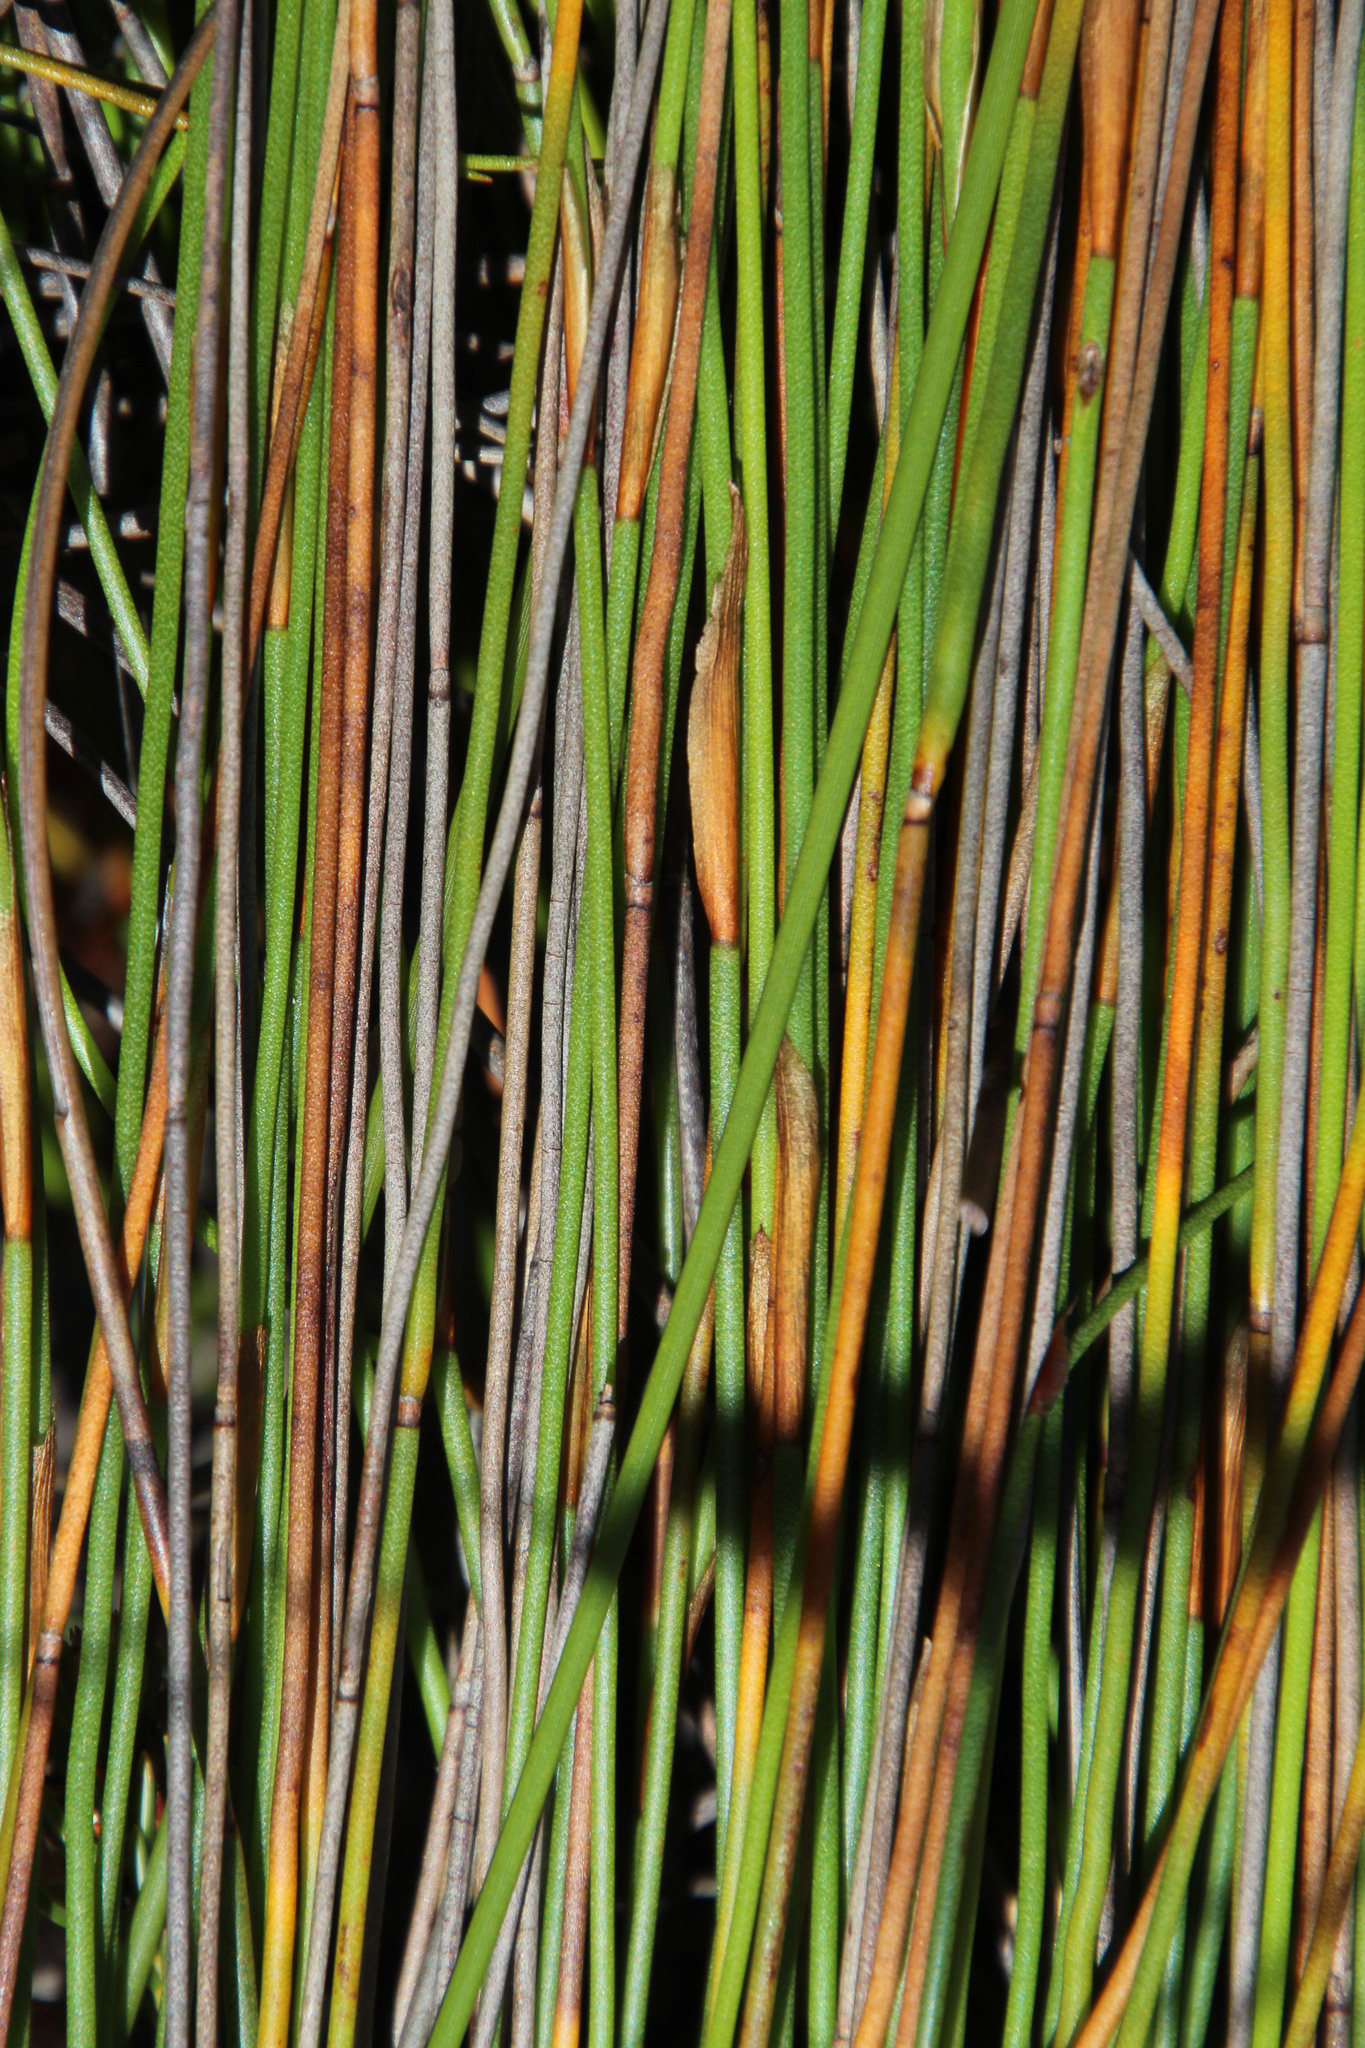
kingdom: Plantae
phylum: Tracheophyta
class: Liliopsida
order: Poales
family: Restionaceae
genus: Elegia
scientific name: Elegia filacea
